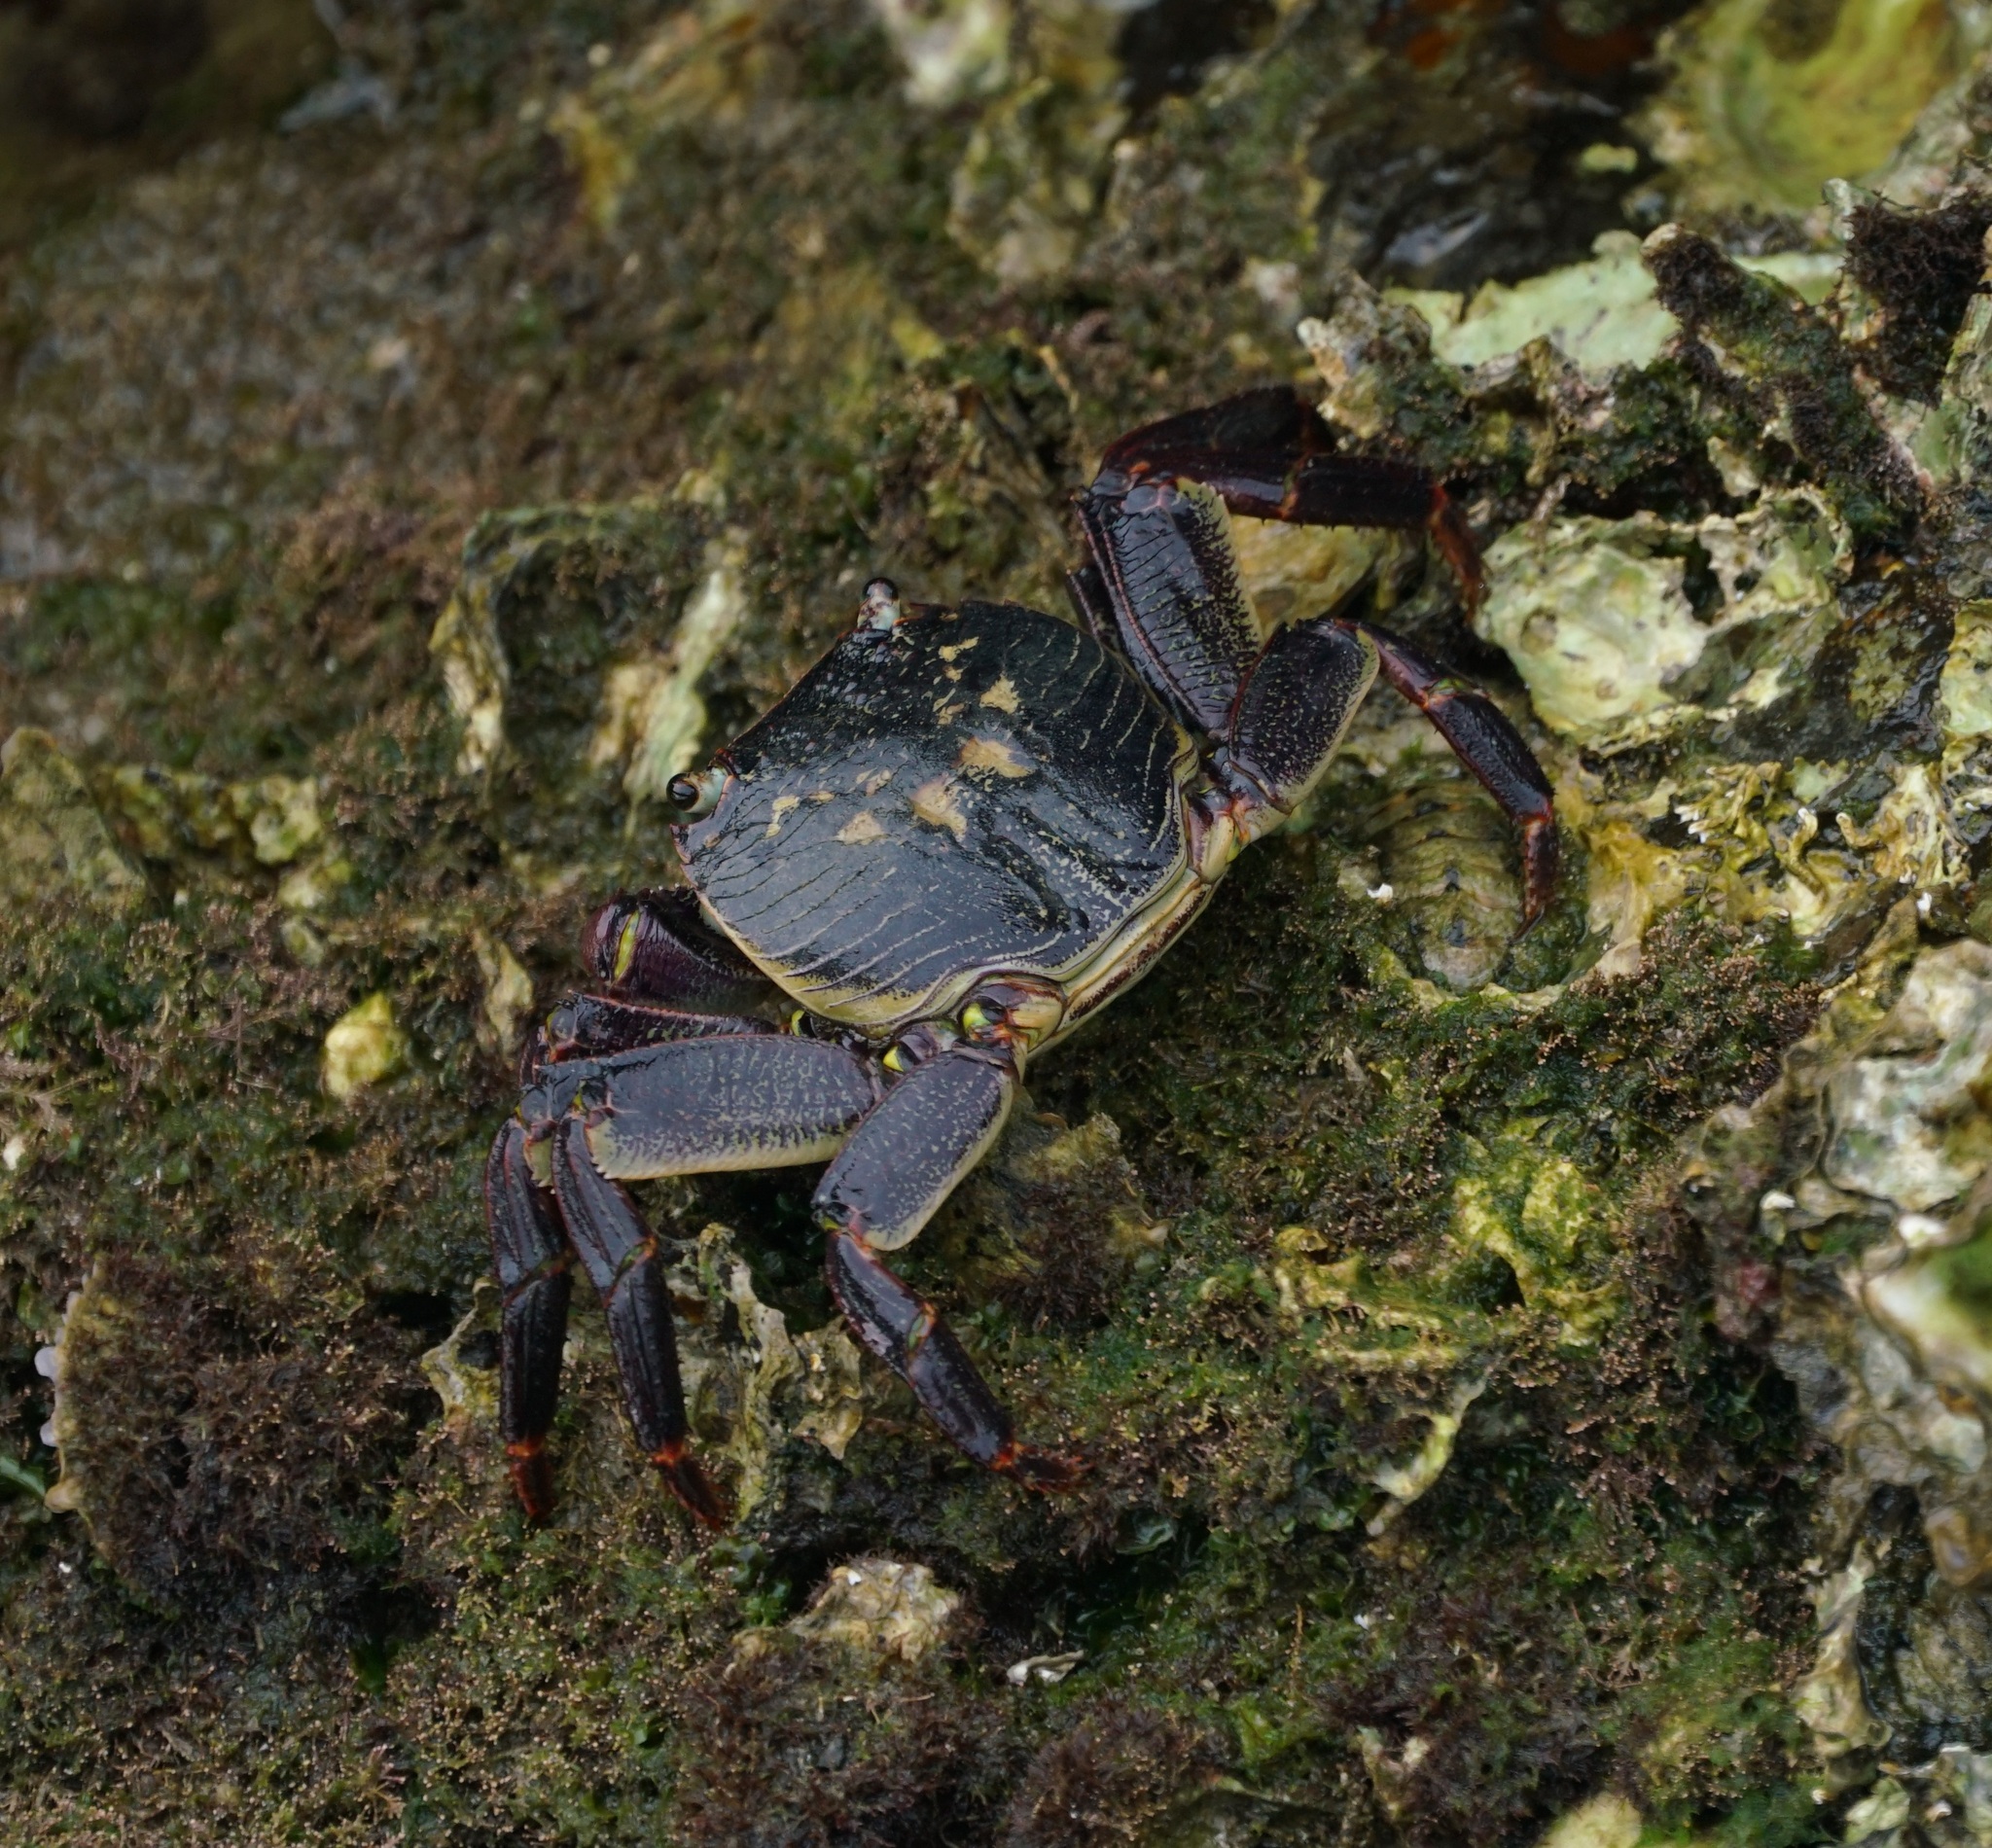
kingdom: Animalia
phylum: Arthropoda
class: Malacostraca
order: Decapoda
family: Grapsidae
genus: Leptograpsus
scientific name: Leptograpsus variegatus
